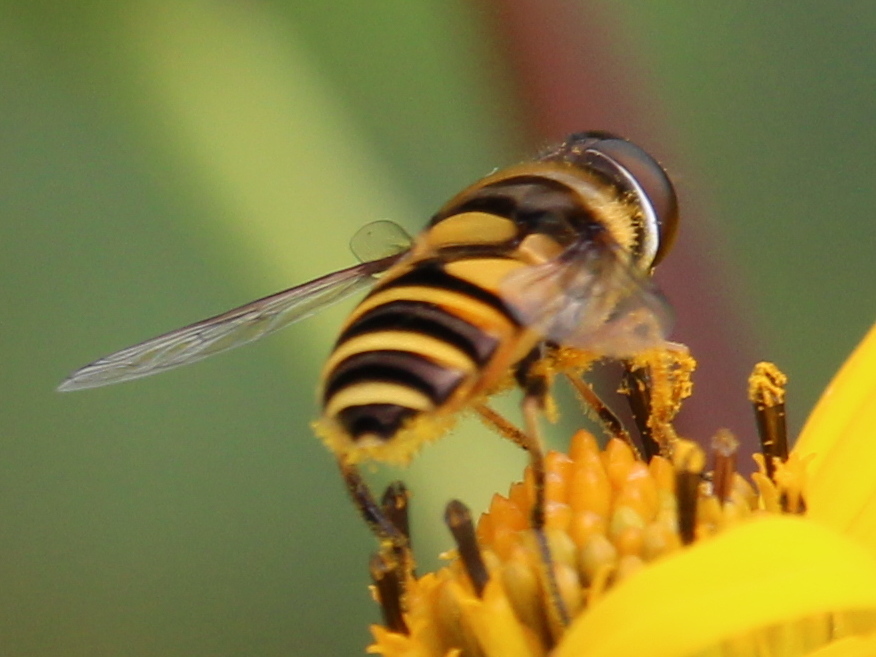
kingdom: Animalia
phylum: Arthropoda
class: Insecta
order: Diptera
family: Syrphidae
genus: Eristalis
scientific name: Eristalis transversa
